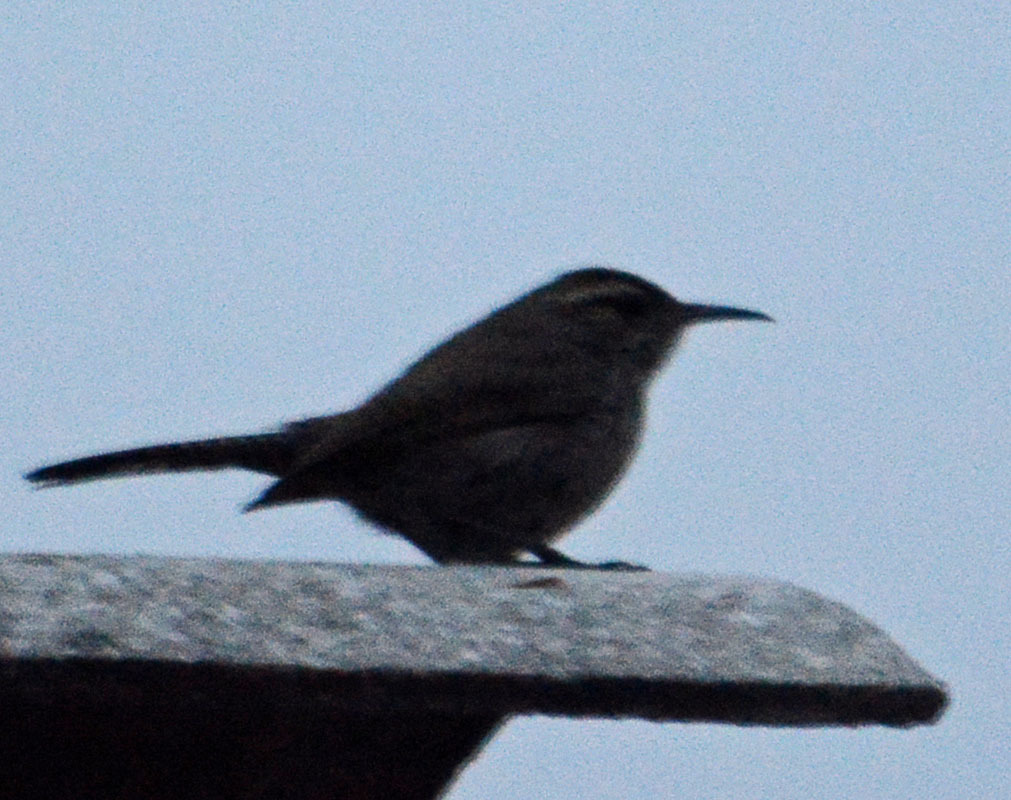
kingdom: Animalia
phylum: Chordata
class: Aves
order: Passeriformes
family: Troglodytidae
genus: Thryomanes
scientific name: Thryomanes bewickii
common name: Bewick's wren
